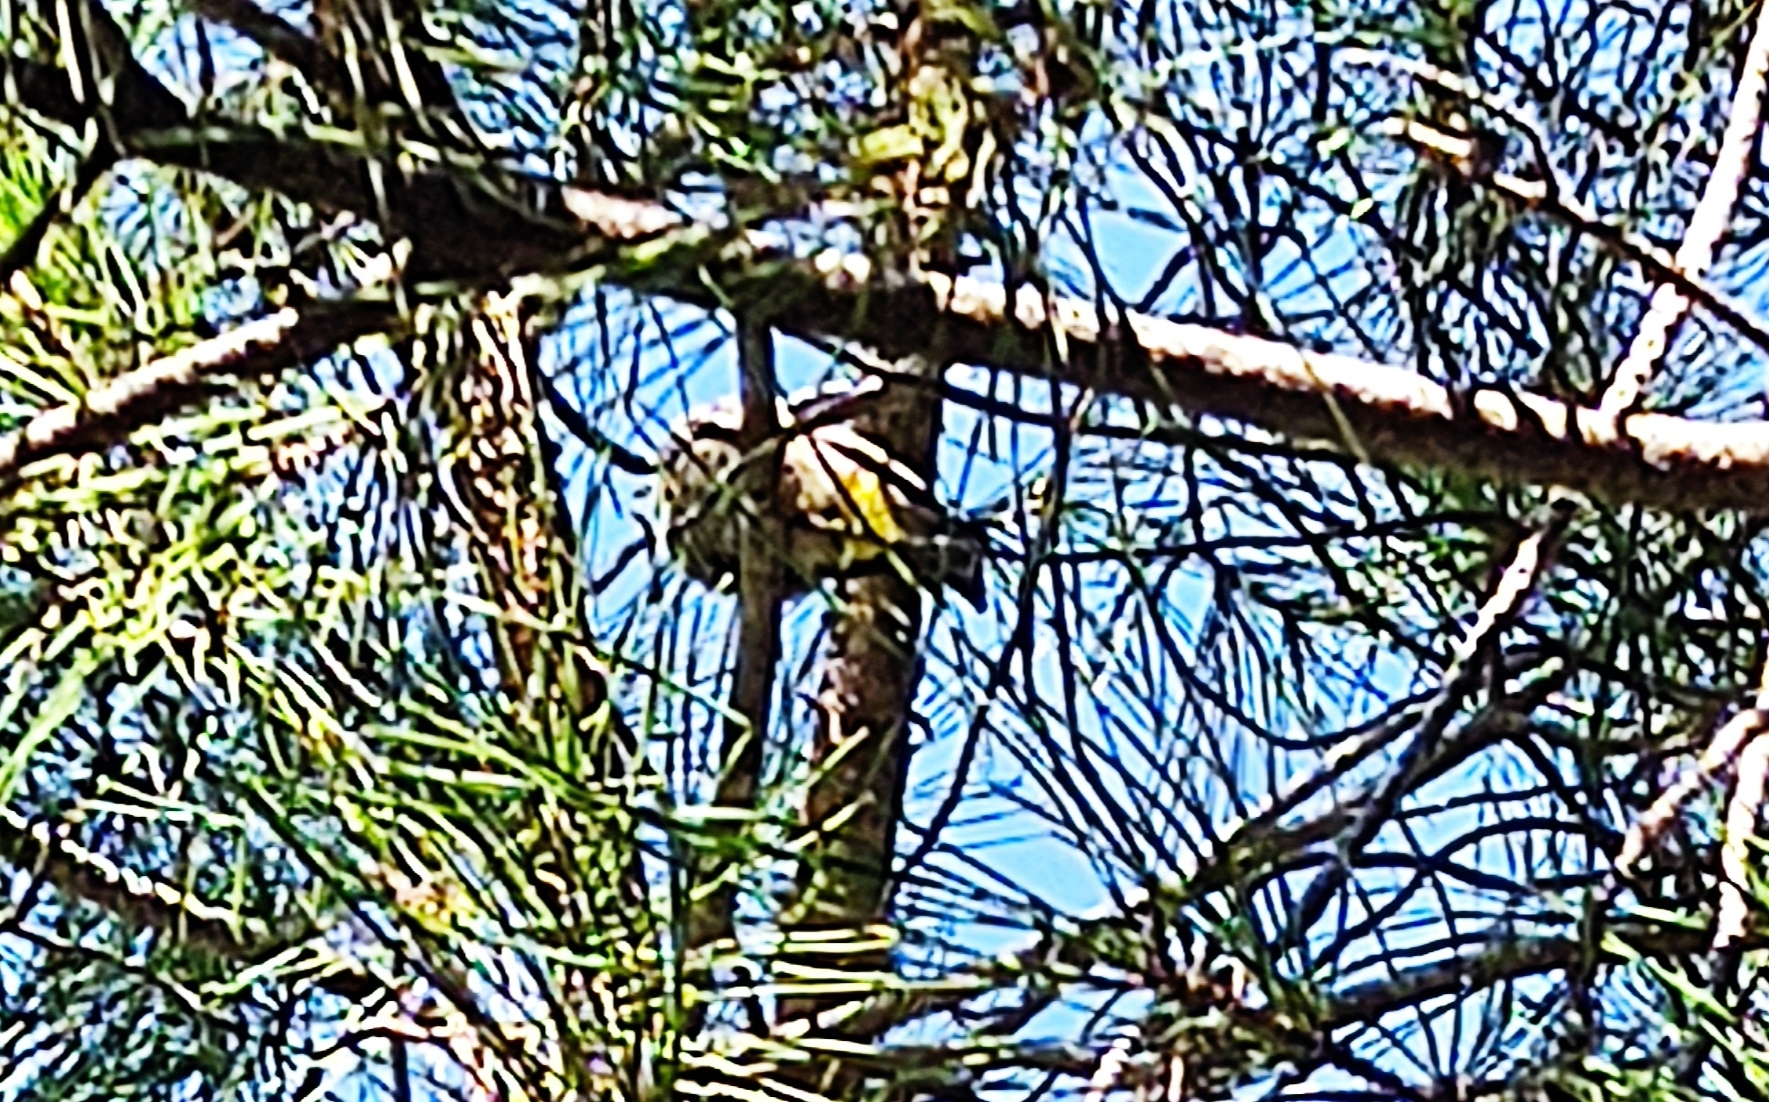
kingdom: Animalia
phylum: Chordata
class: Aves
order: Passeriformes
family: Pycnonotidae
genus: Pycnonotus
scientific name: Pycnonotus xanthopygos
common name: White-spectacled bulbul
